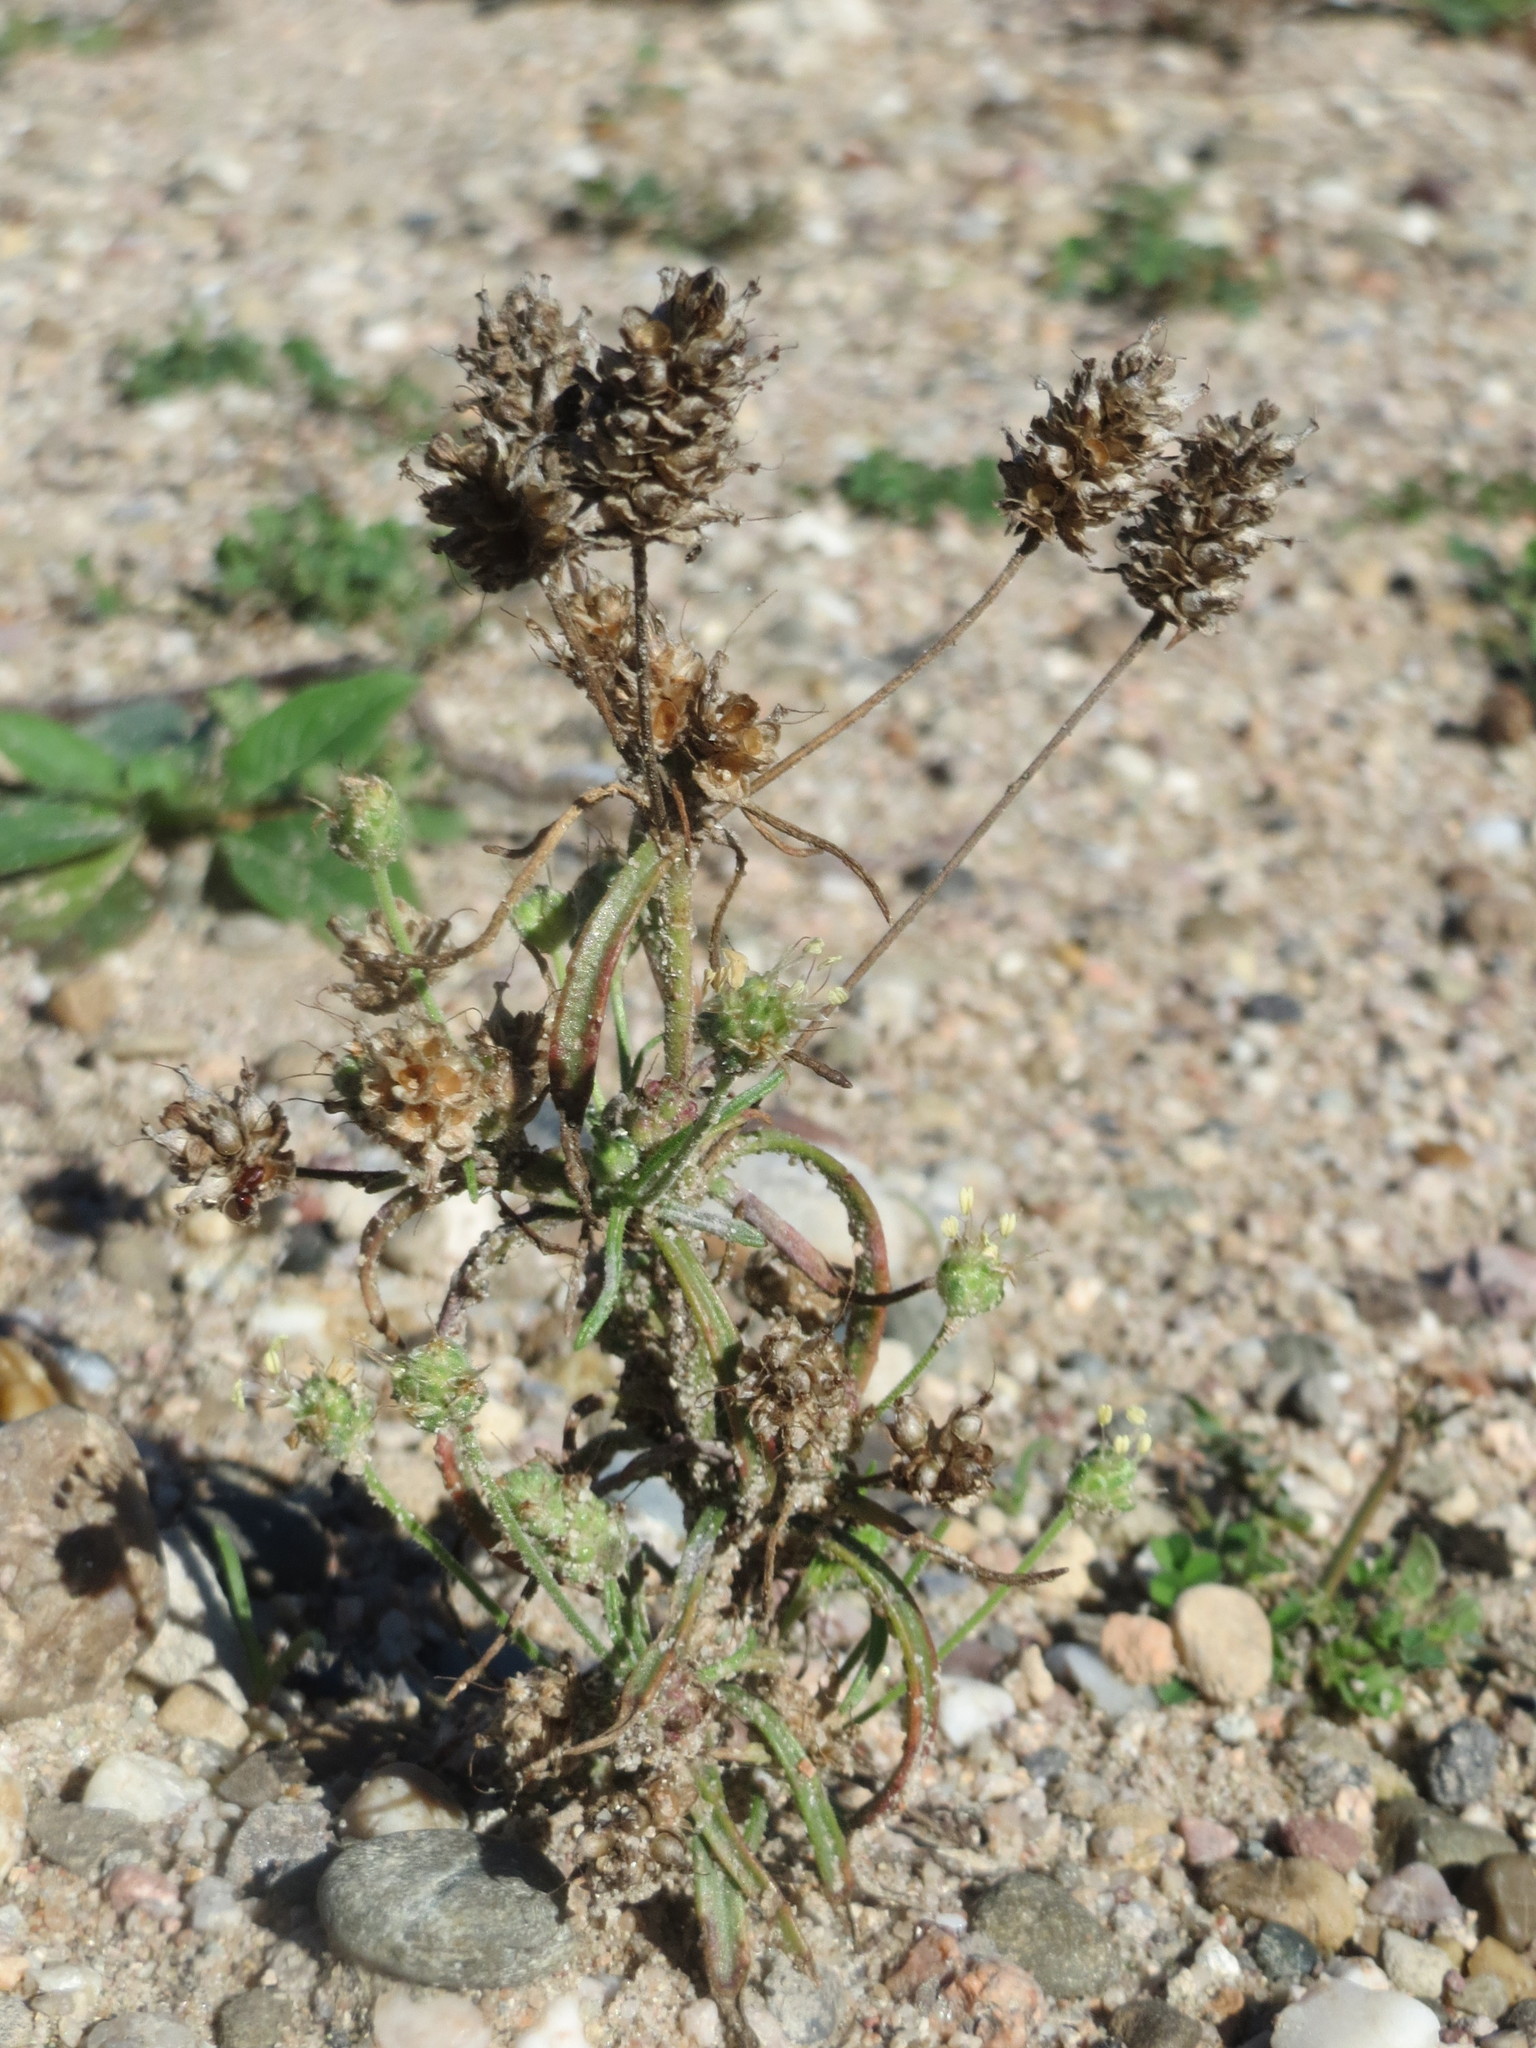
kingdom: Plantae
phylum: Tracheophyta
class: Magnoliopsida
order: Lamiales
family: Plantaginaceae
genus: Plantago
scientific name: Plantago arenaria
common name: Branched plantain
